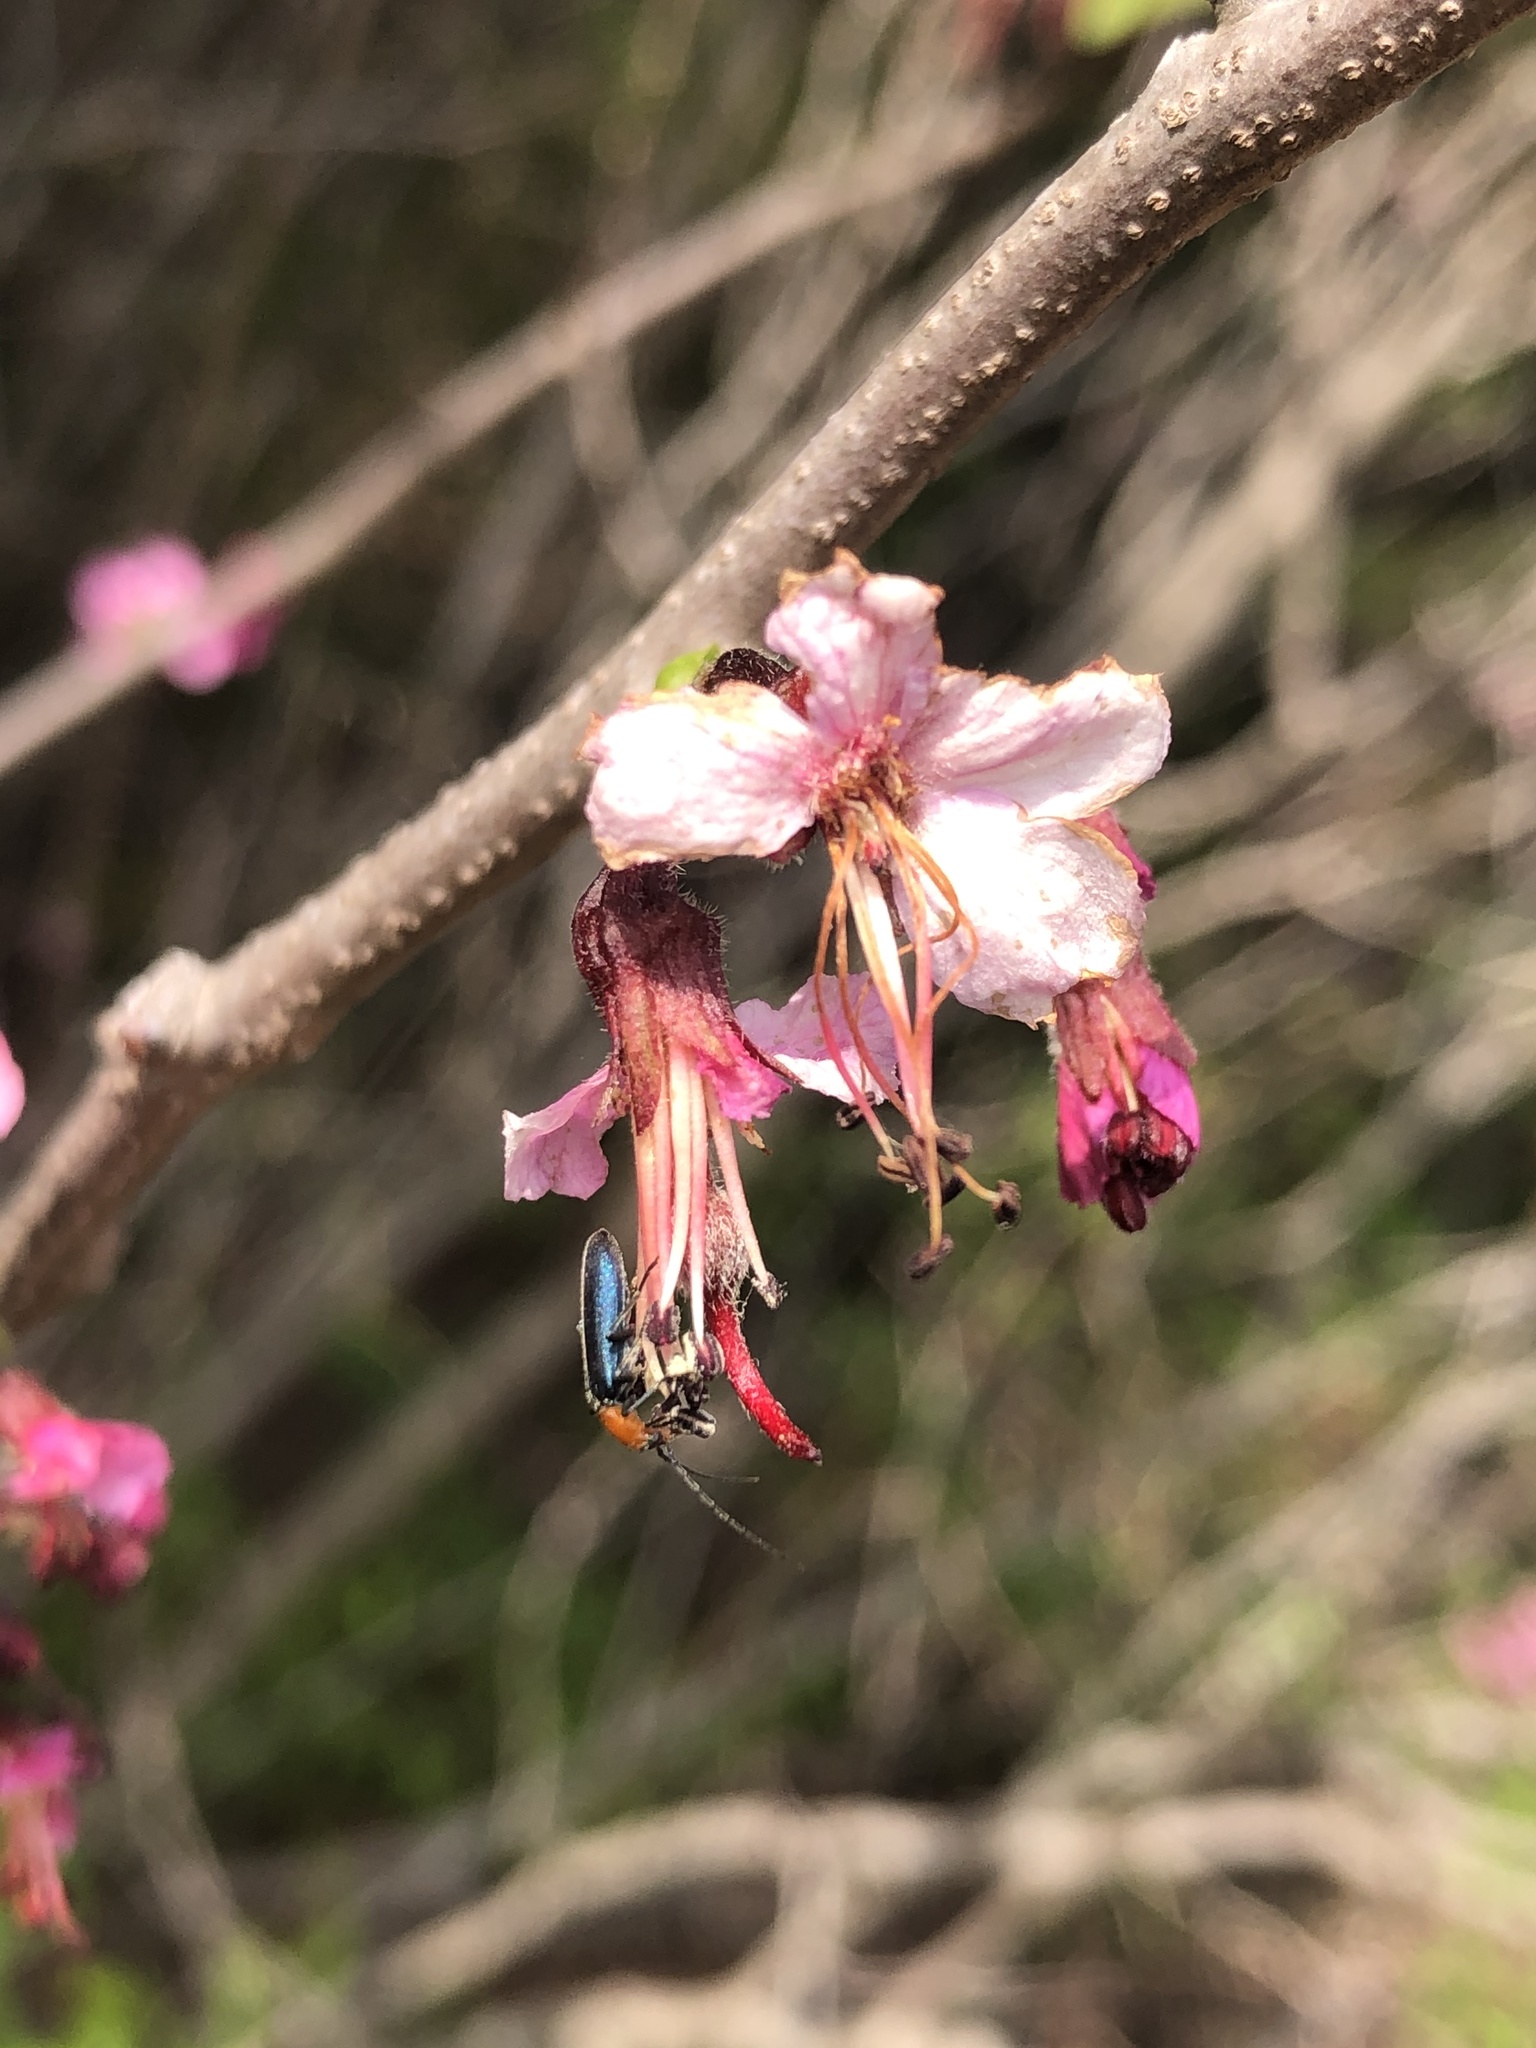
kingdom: Plantae
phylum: Tracheophyta
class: Magnoliopsida
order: Sapindales
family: Sapindaceae
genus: Ungnadia
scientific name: Ungnadia speciosa
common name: Texas-buckeye
